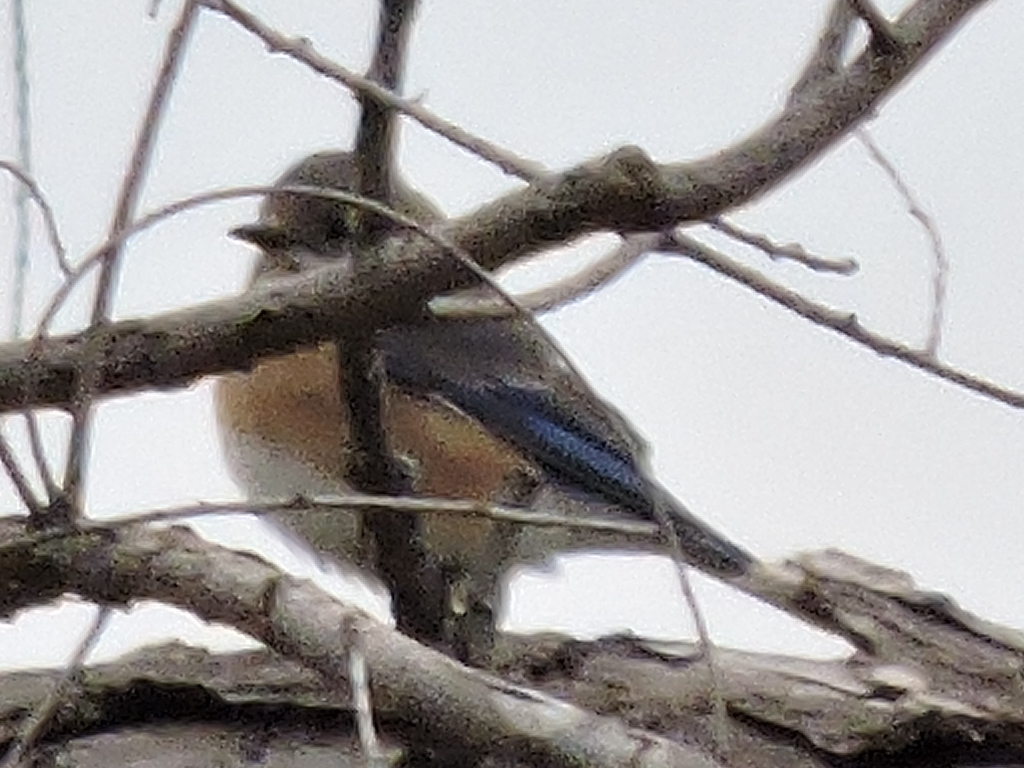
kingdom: Animalia
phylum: Chordata
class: Aves
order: Passeriformes
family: Turdidae
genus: Sialia
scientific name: Sialia sialis
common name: Eastern bluebird
